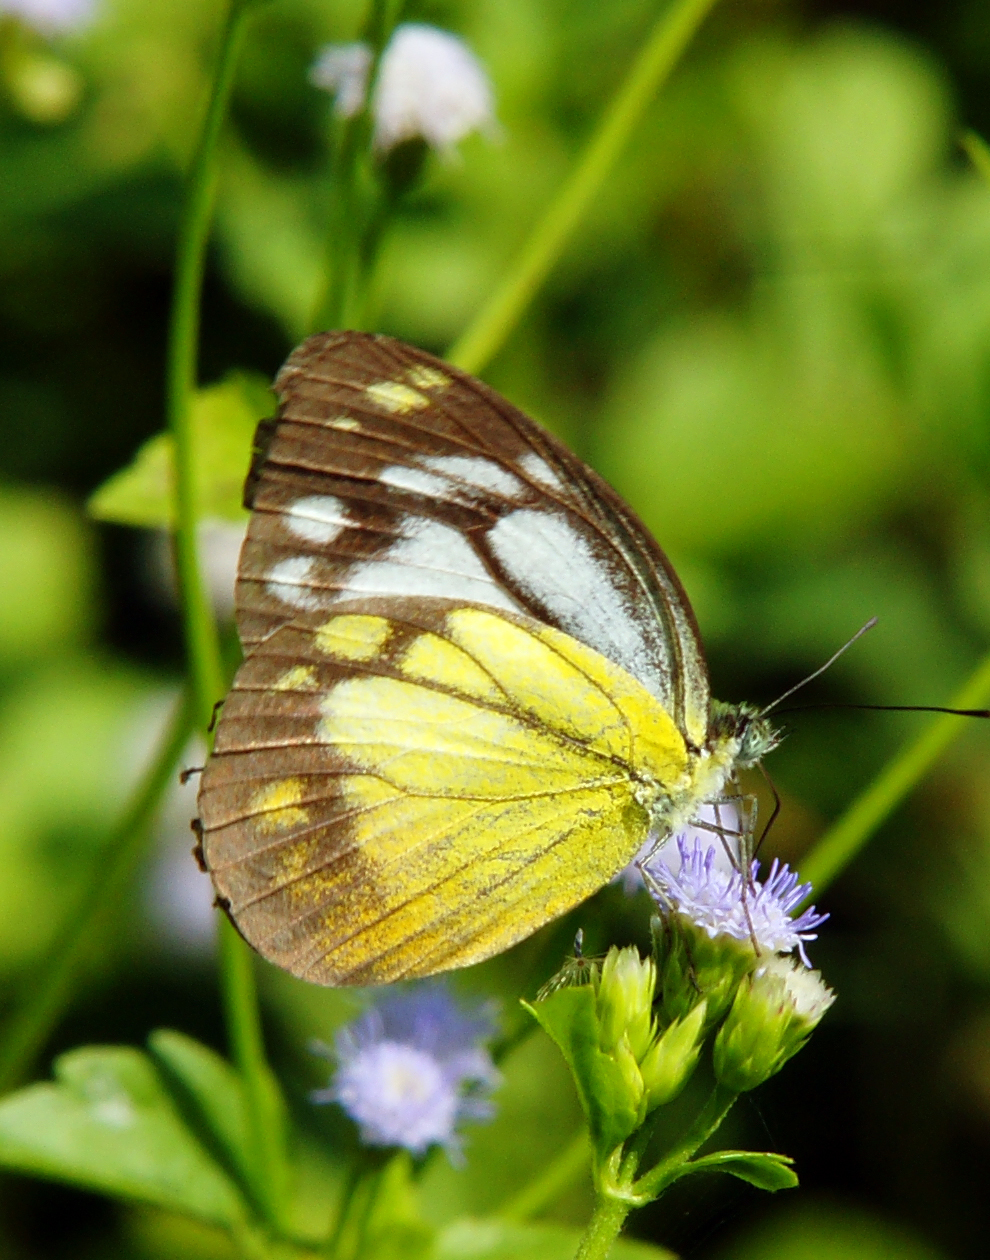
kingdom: Animalia
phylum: Arthropoda
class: Insecta
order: Lepidoptera
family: Pieridae
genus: Cepora
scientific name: Cepora iudith
